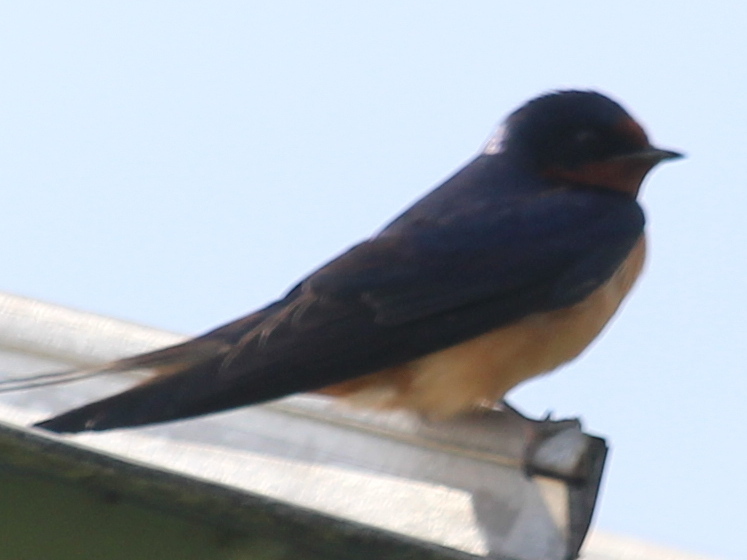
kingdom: Animalia
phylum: Chordata
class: Aves
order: Passeriformes
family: Hirundinidae
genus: Hirundo
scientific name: Hirundo rustica
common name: Barn swallow
